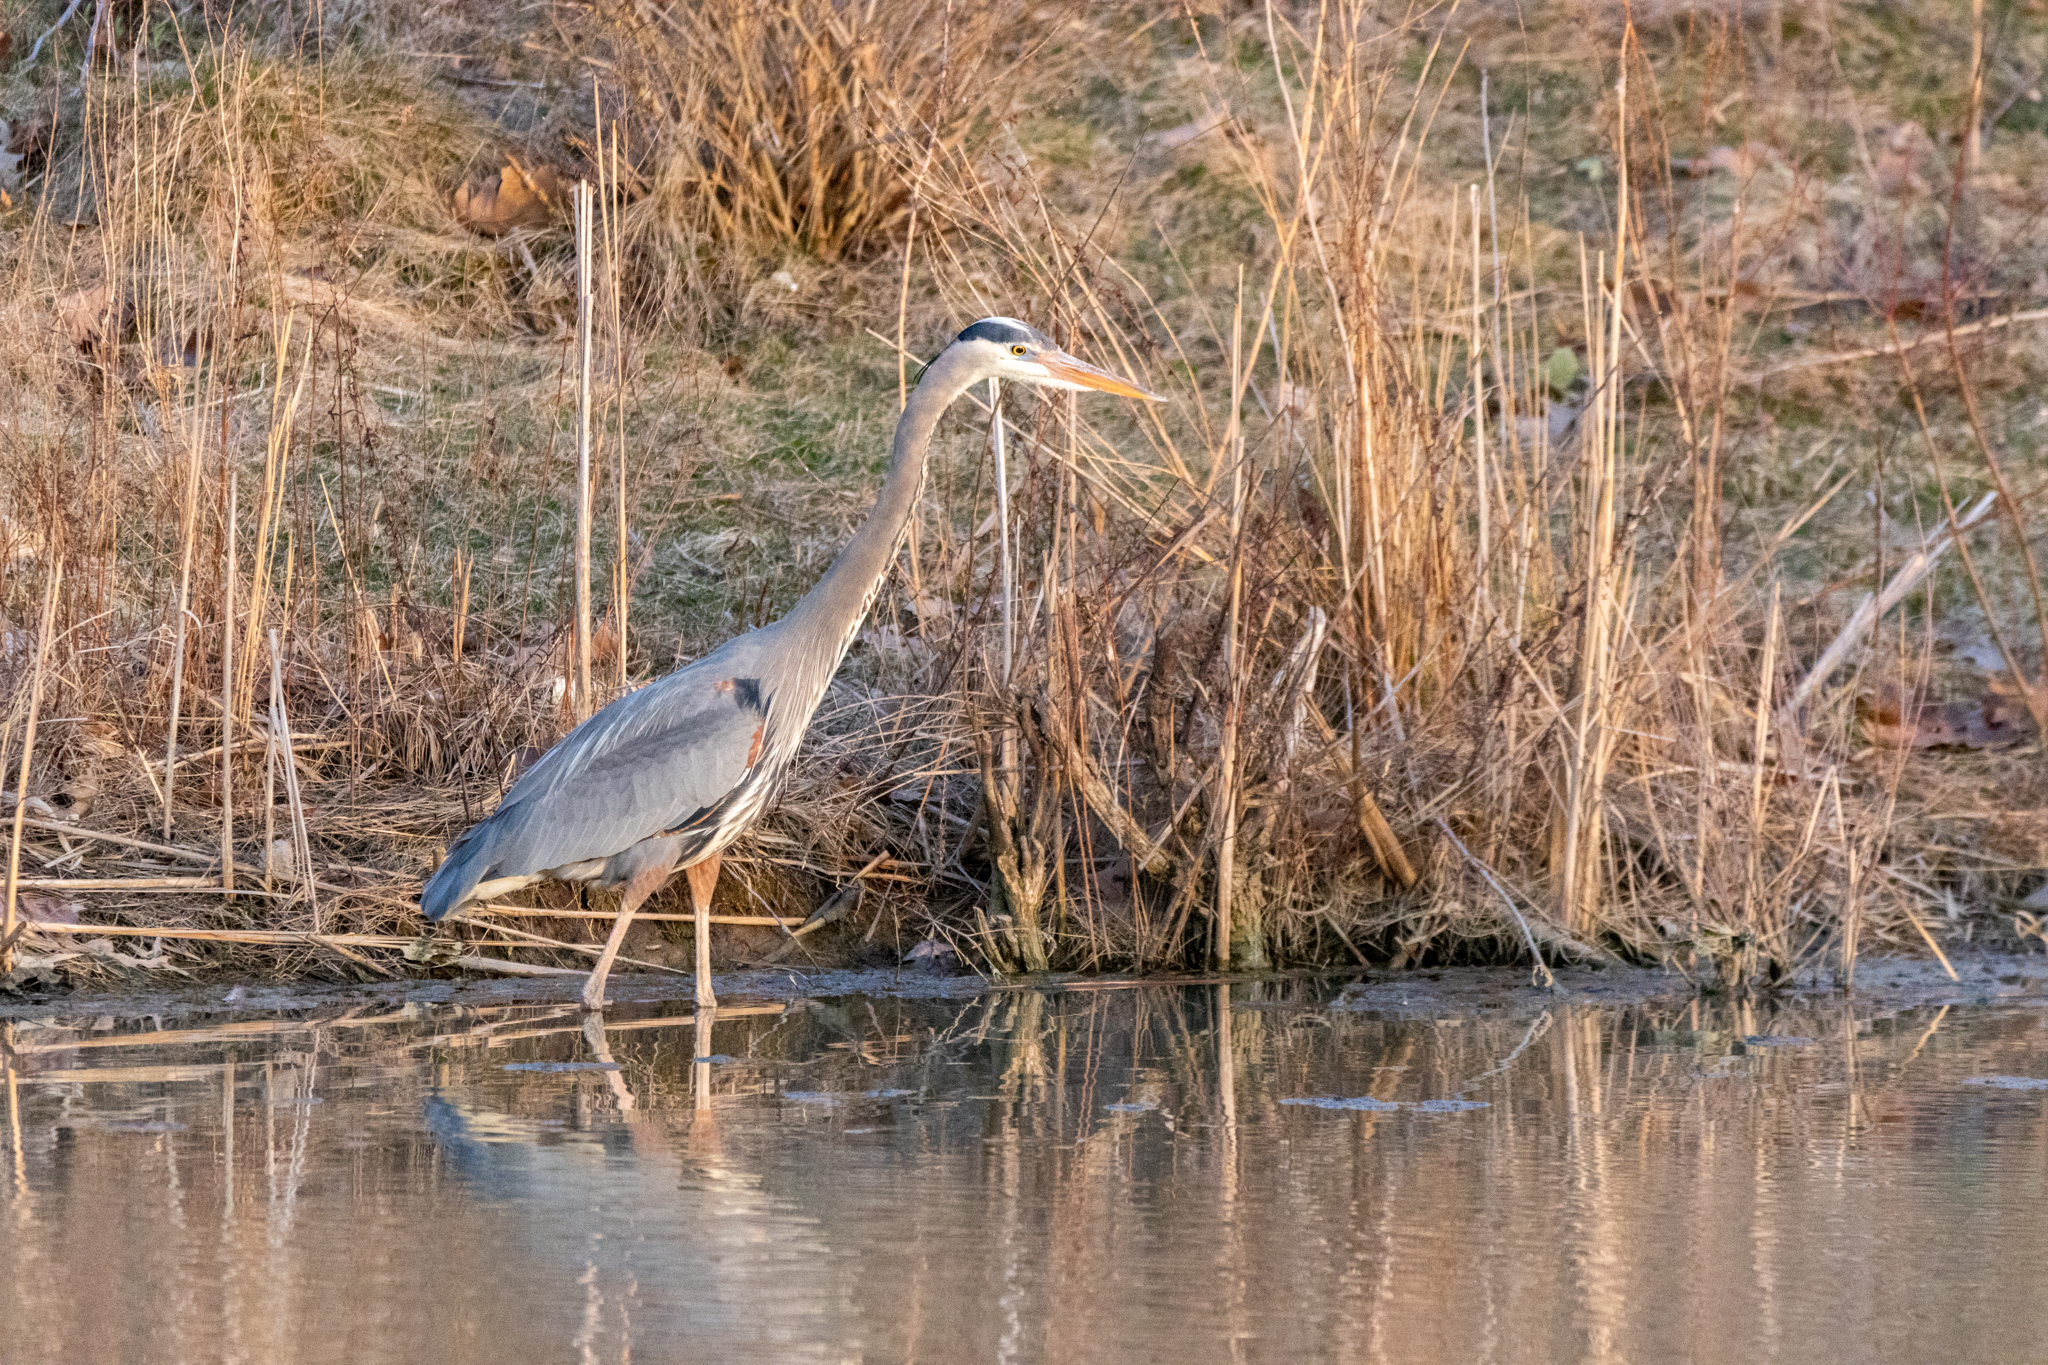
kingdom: Animalia
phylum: Chordata
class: Aves
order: Pelecaniformes
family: Ardeidae
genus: Ardea
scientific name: Ardea herodias
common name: Great blue heron
